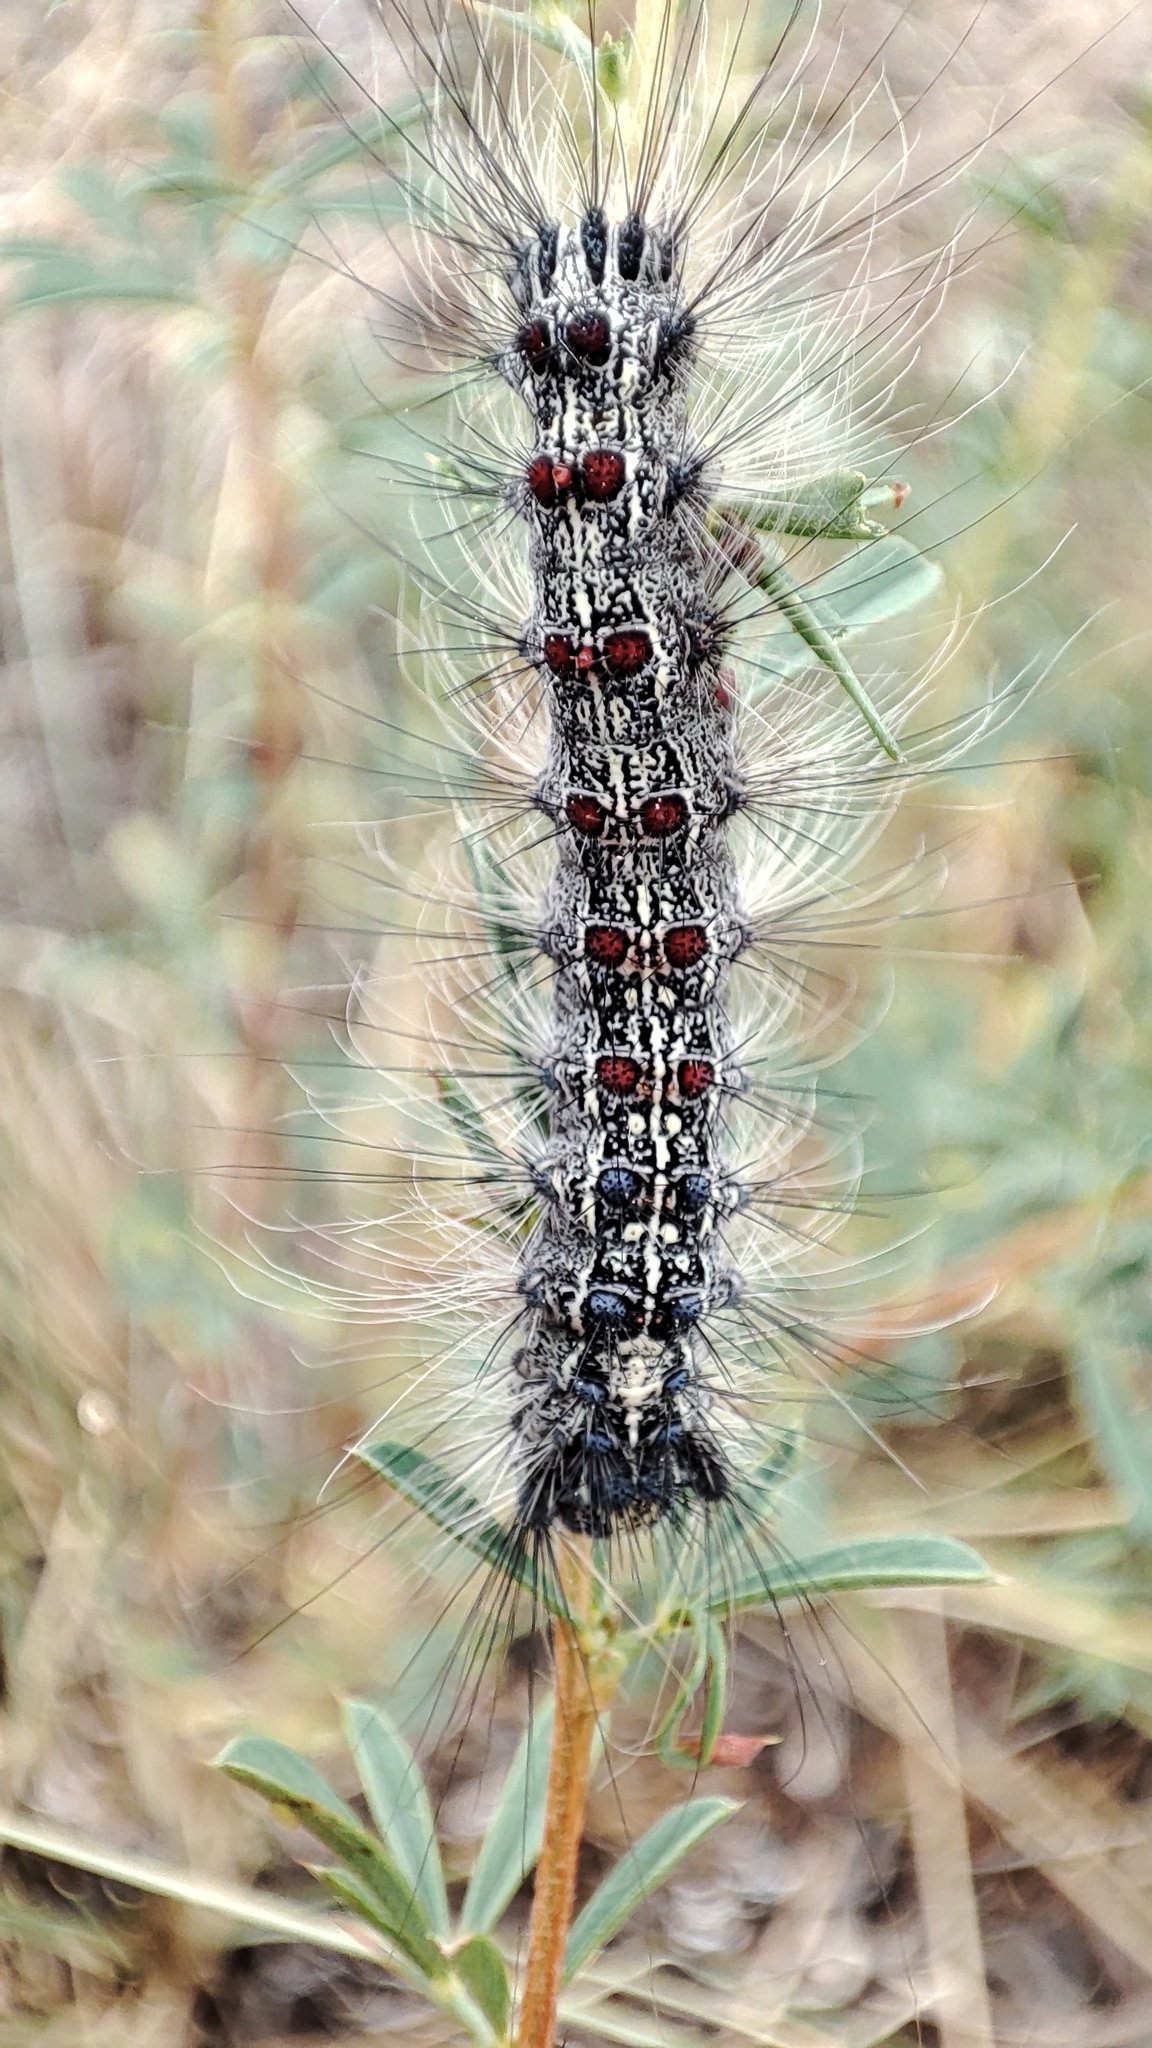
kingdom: Animalia
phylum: Arthropoda
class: Insecta
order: Lepidoptera
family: Erebidae
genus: Lymantria
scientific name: Lymantria dispar
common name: Gypsy moth
